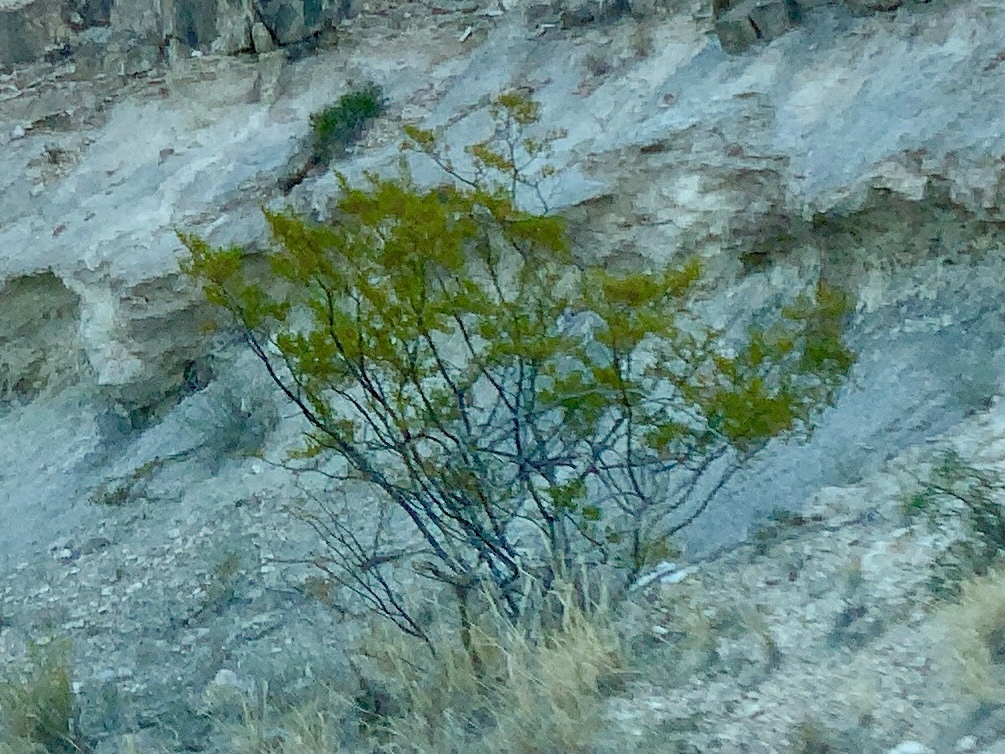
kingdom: Plantae
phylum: Tracheophyta
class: Magnoliopsida
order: Zygophyllales
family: Zygophyllaceae
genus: Larrea
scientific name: Larrea tridentata
